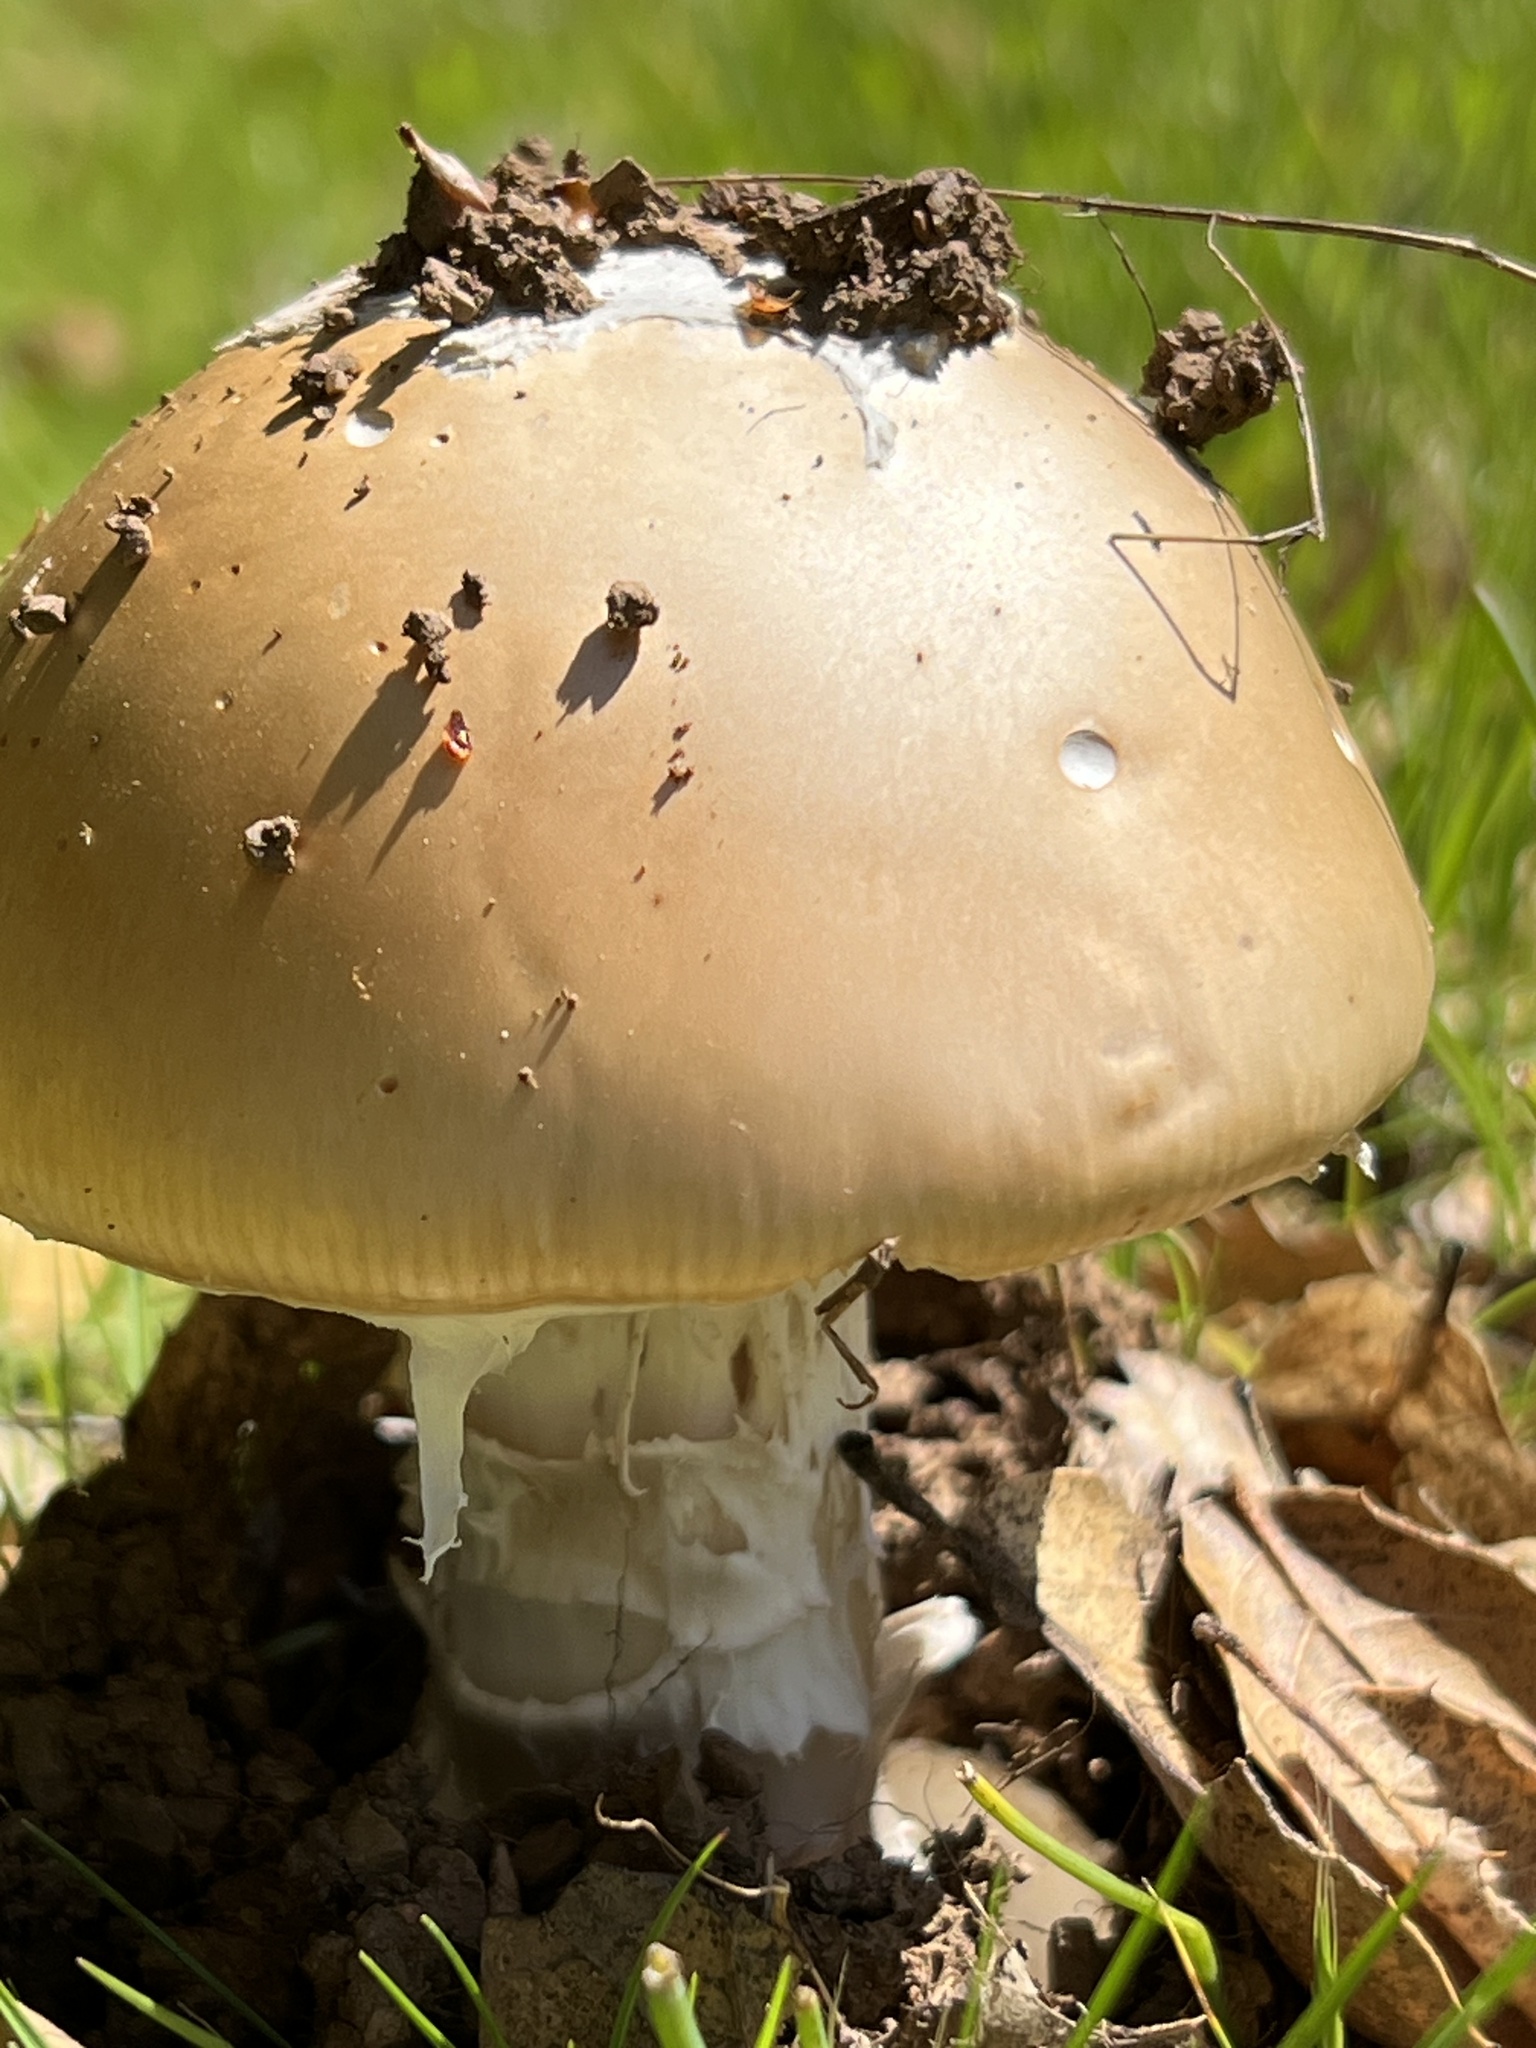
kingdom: Fungi
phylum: Basidiomycota
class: Agaricomycetes
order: Agaricales
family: Amanitaceae
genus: Amanita
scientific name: Amanita velosa
